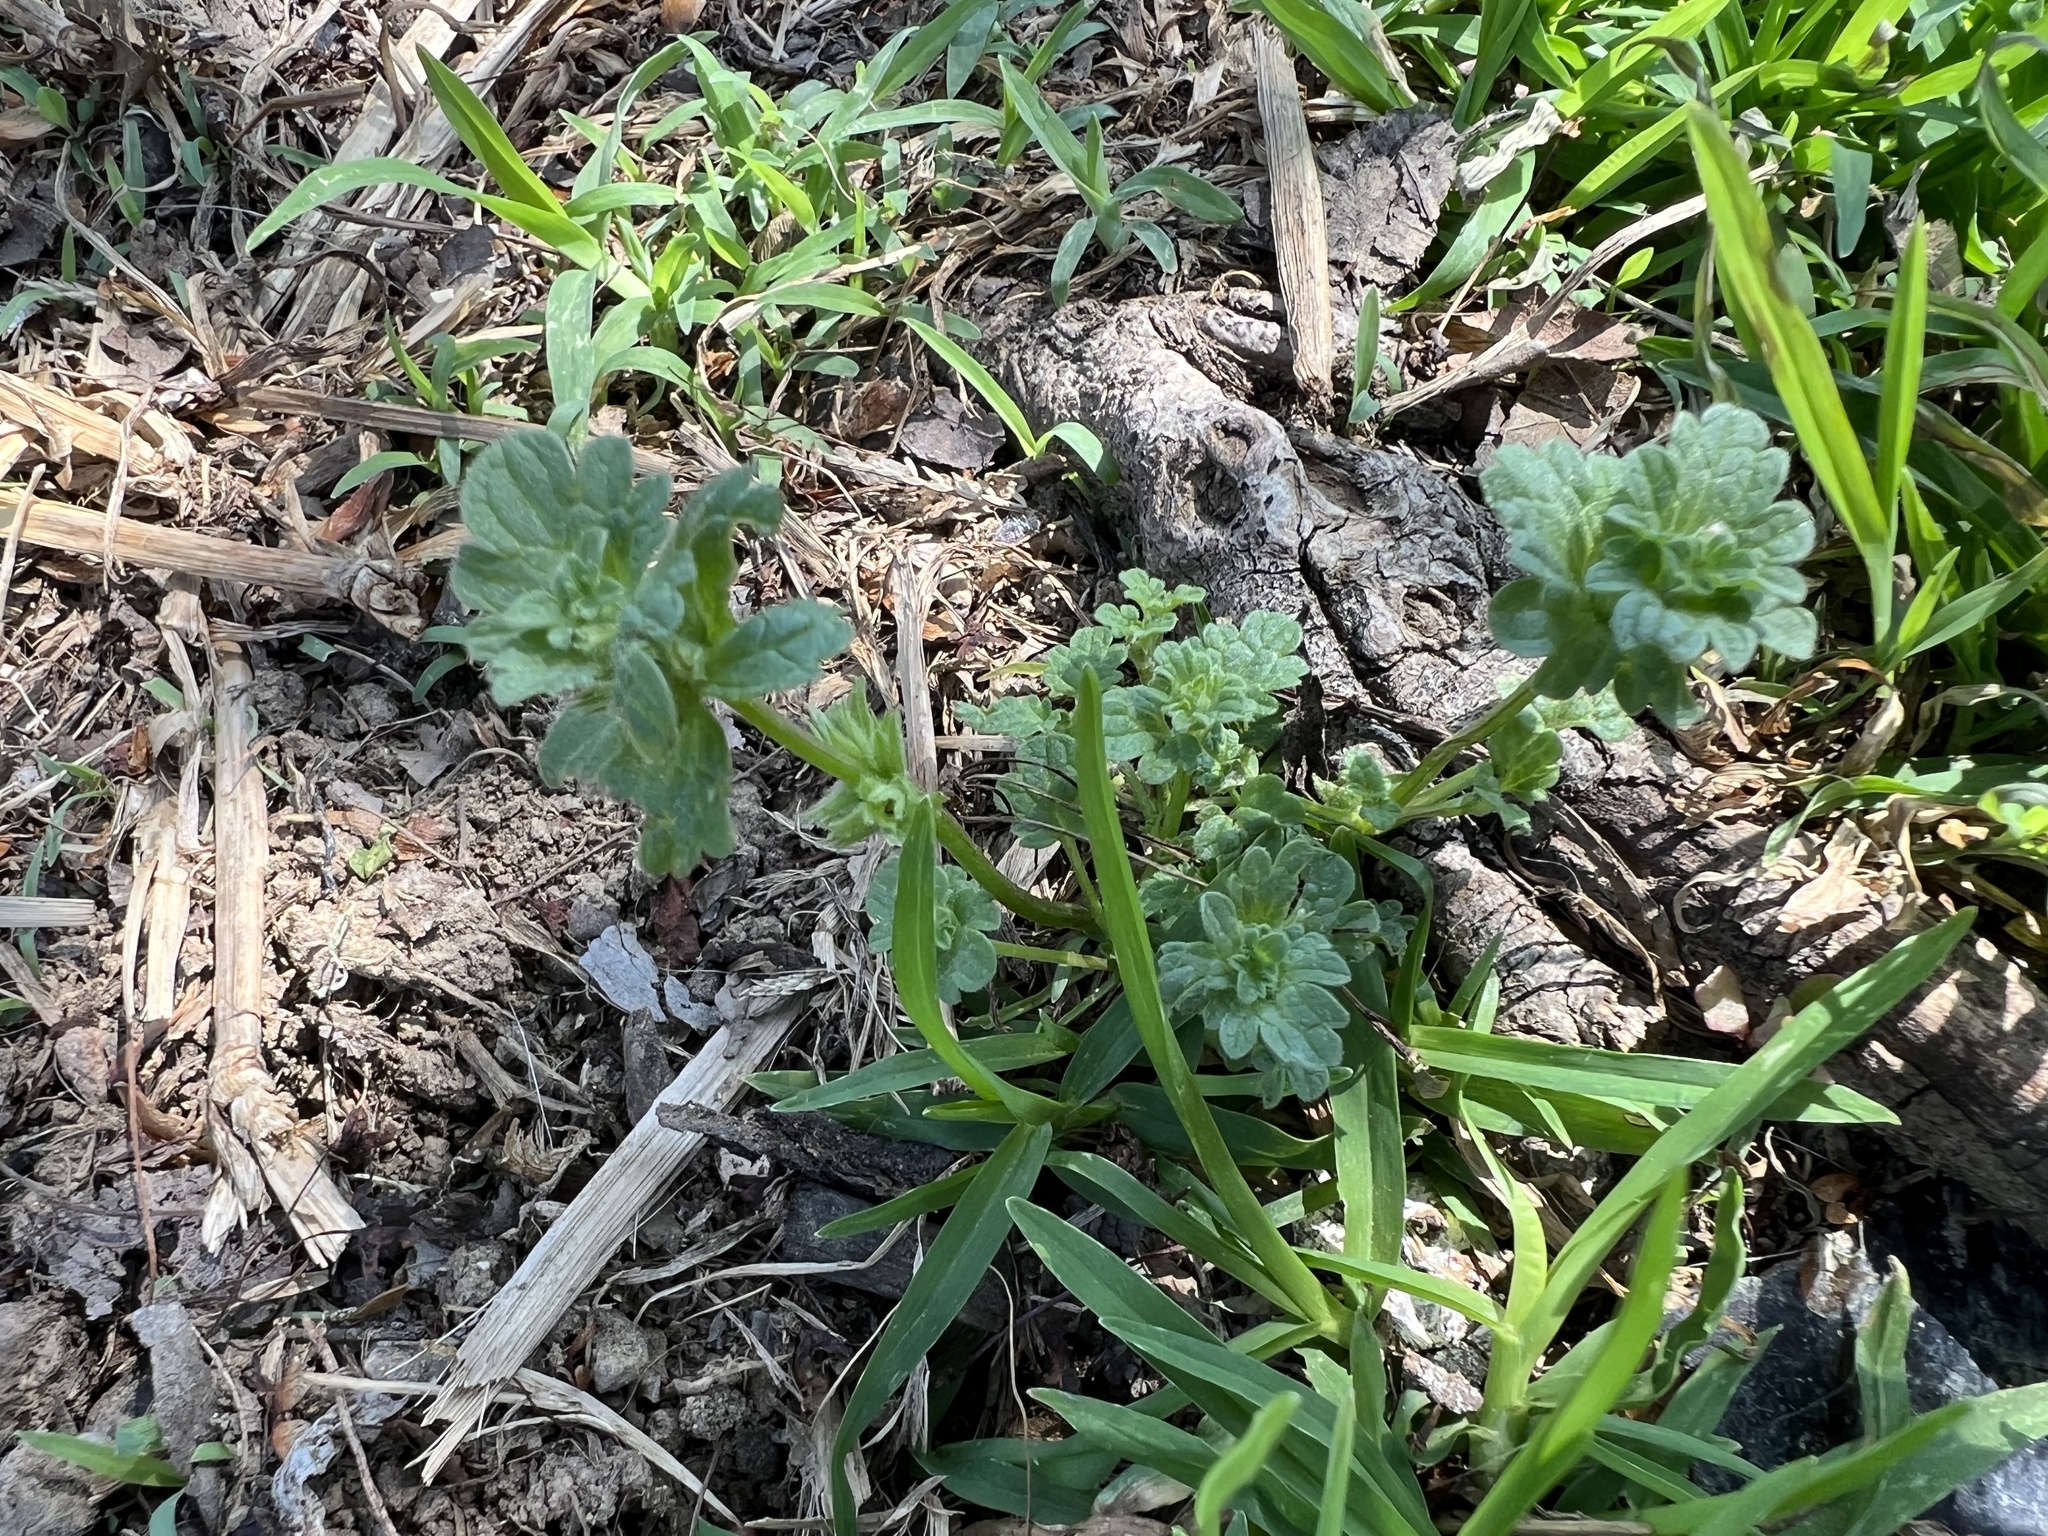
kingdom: Plantae
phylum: Tracheophyta
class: Magnoliopsida
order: Lamiales
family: Lamiaceae
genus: Lamium
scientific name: Lamium amplexicaule
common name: Henbit dead-nettle
